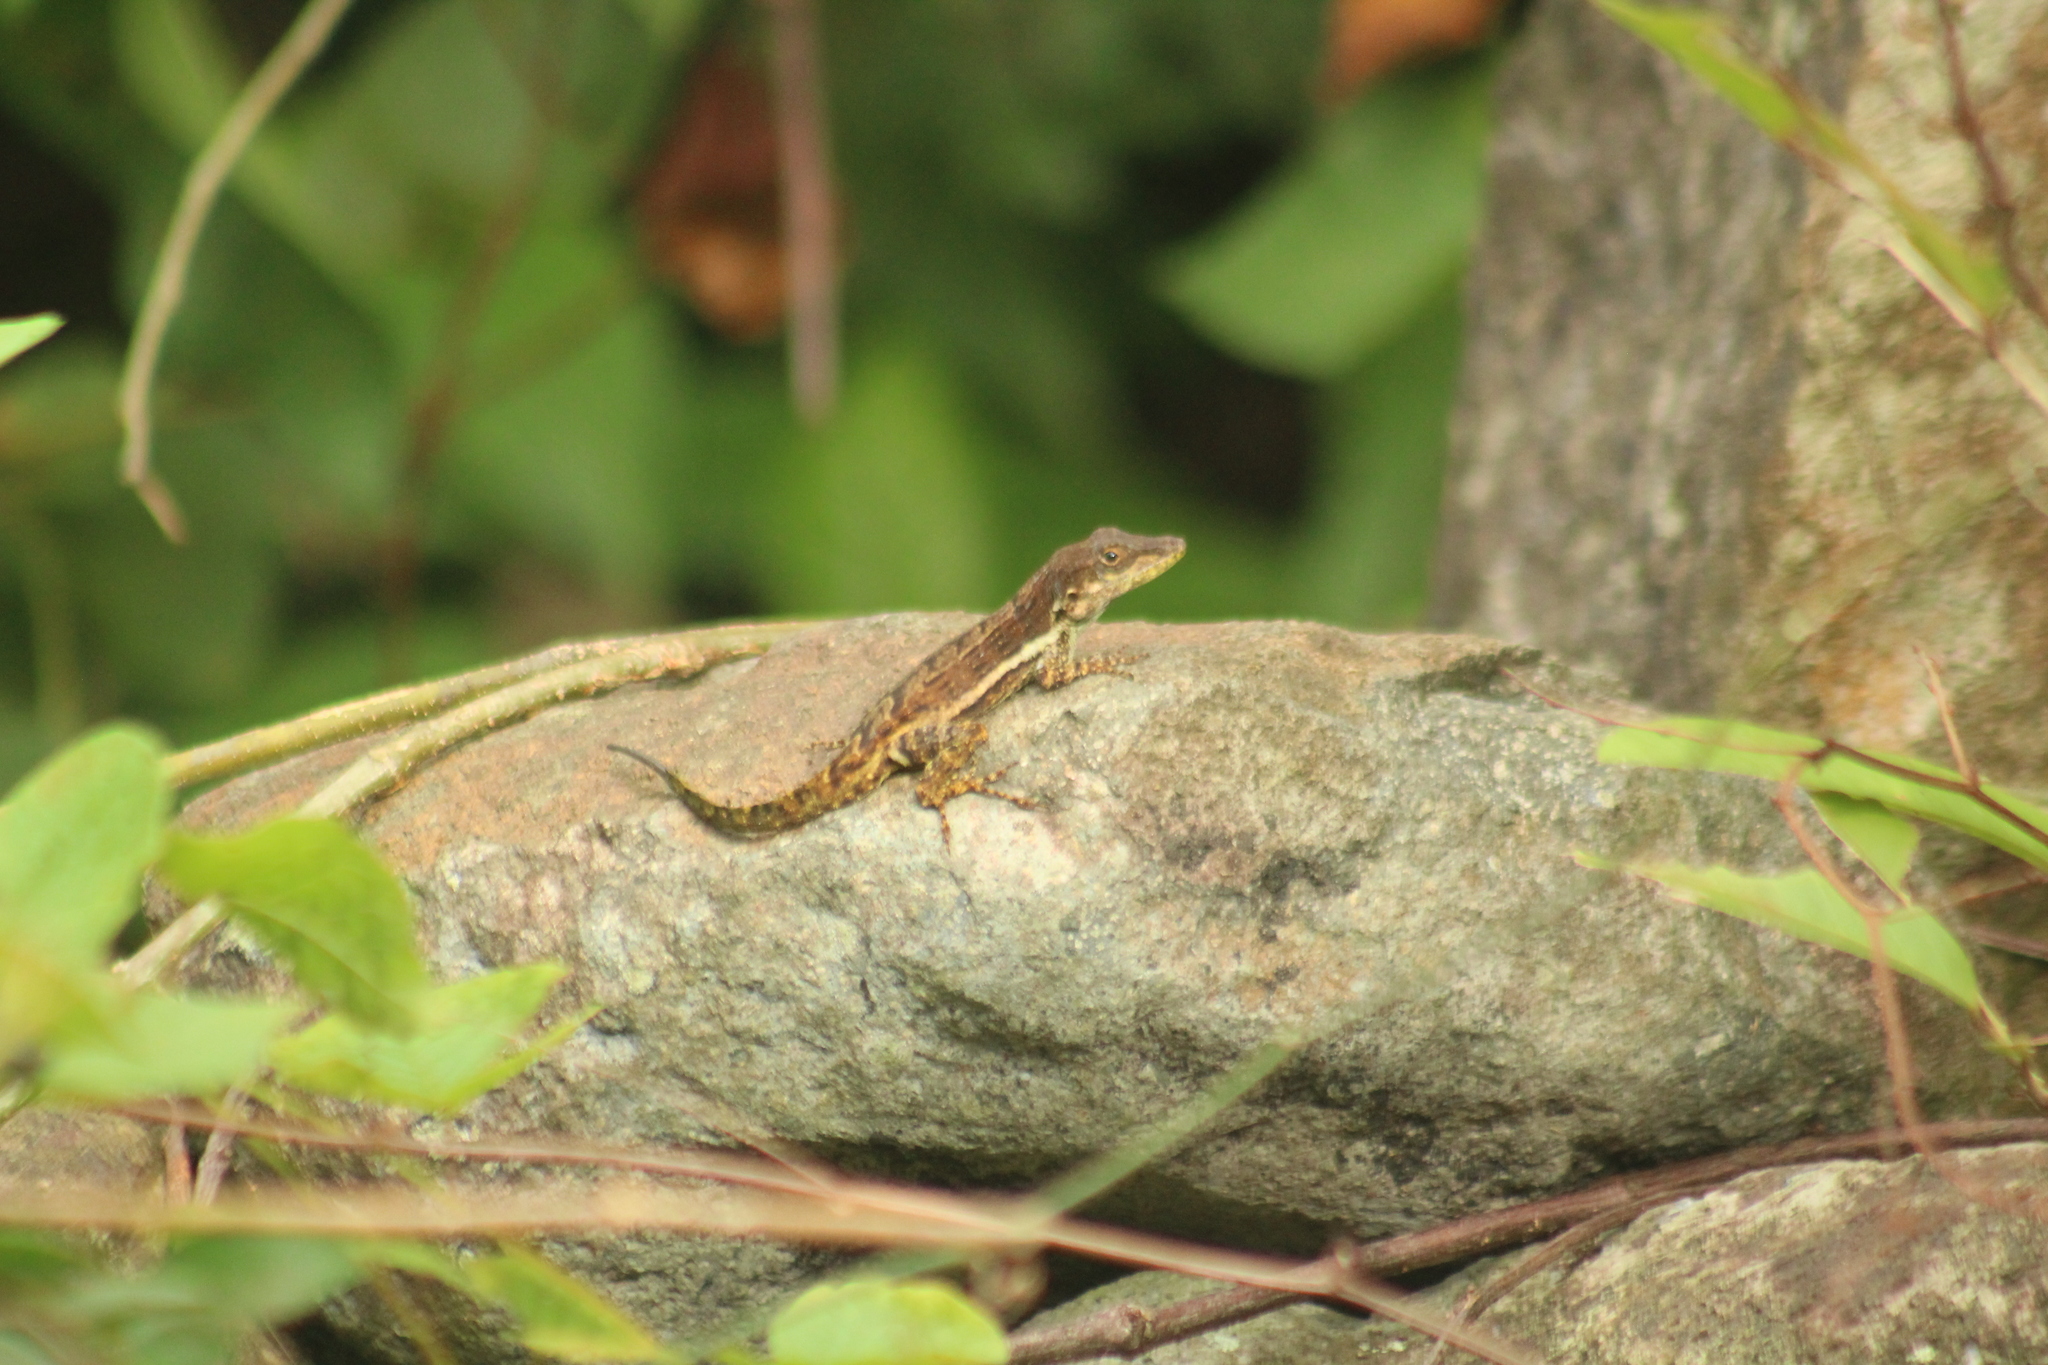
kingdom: Animalia
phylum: Chordata
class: Squamata
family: Dactyloidae
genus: Anolis
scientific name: Anolis gingivinus
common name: Anguilla anole
